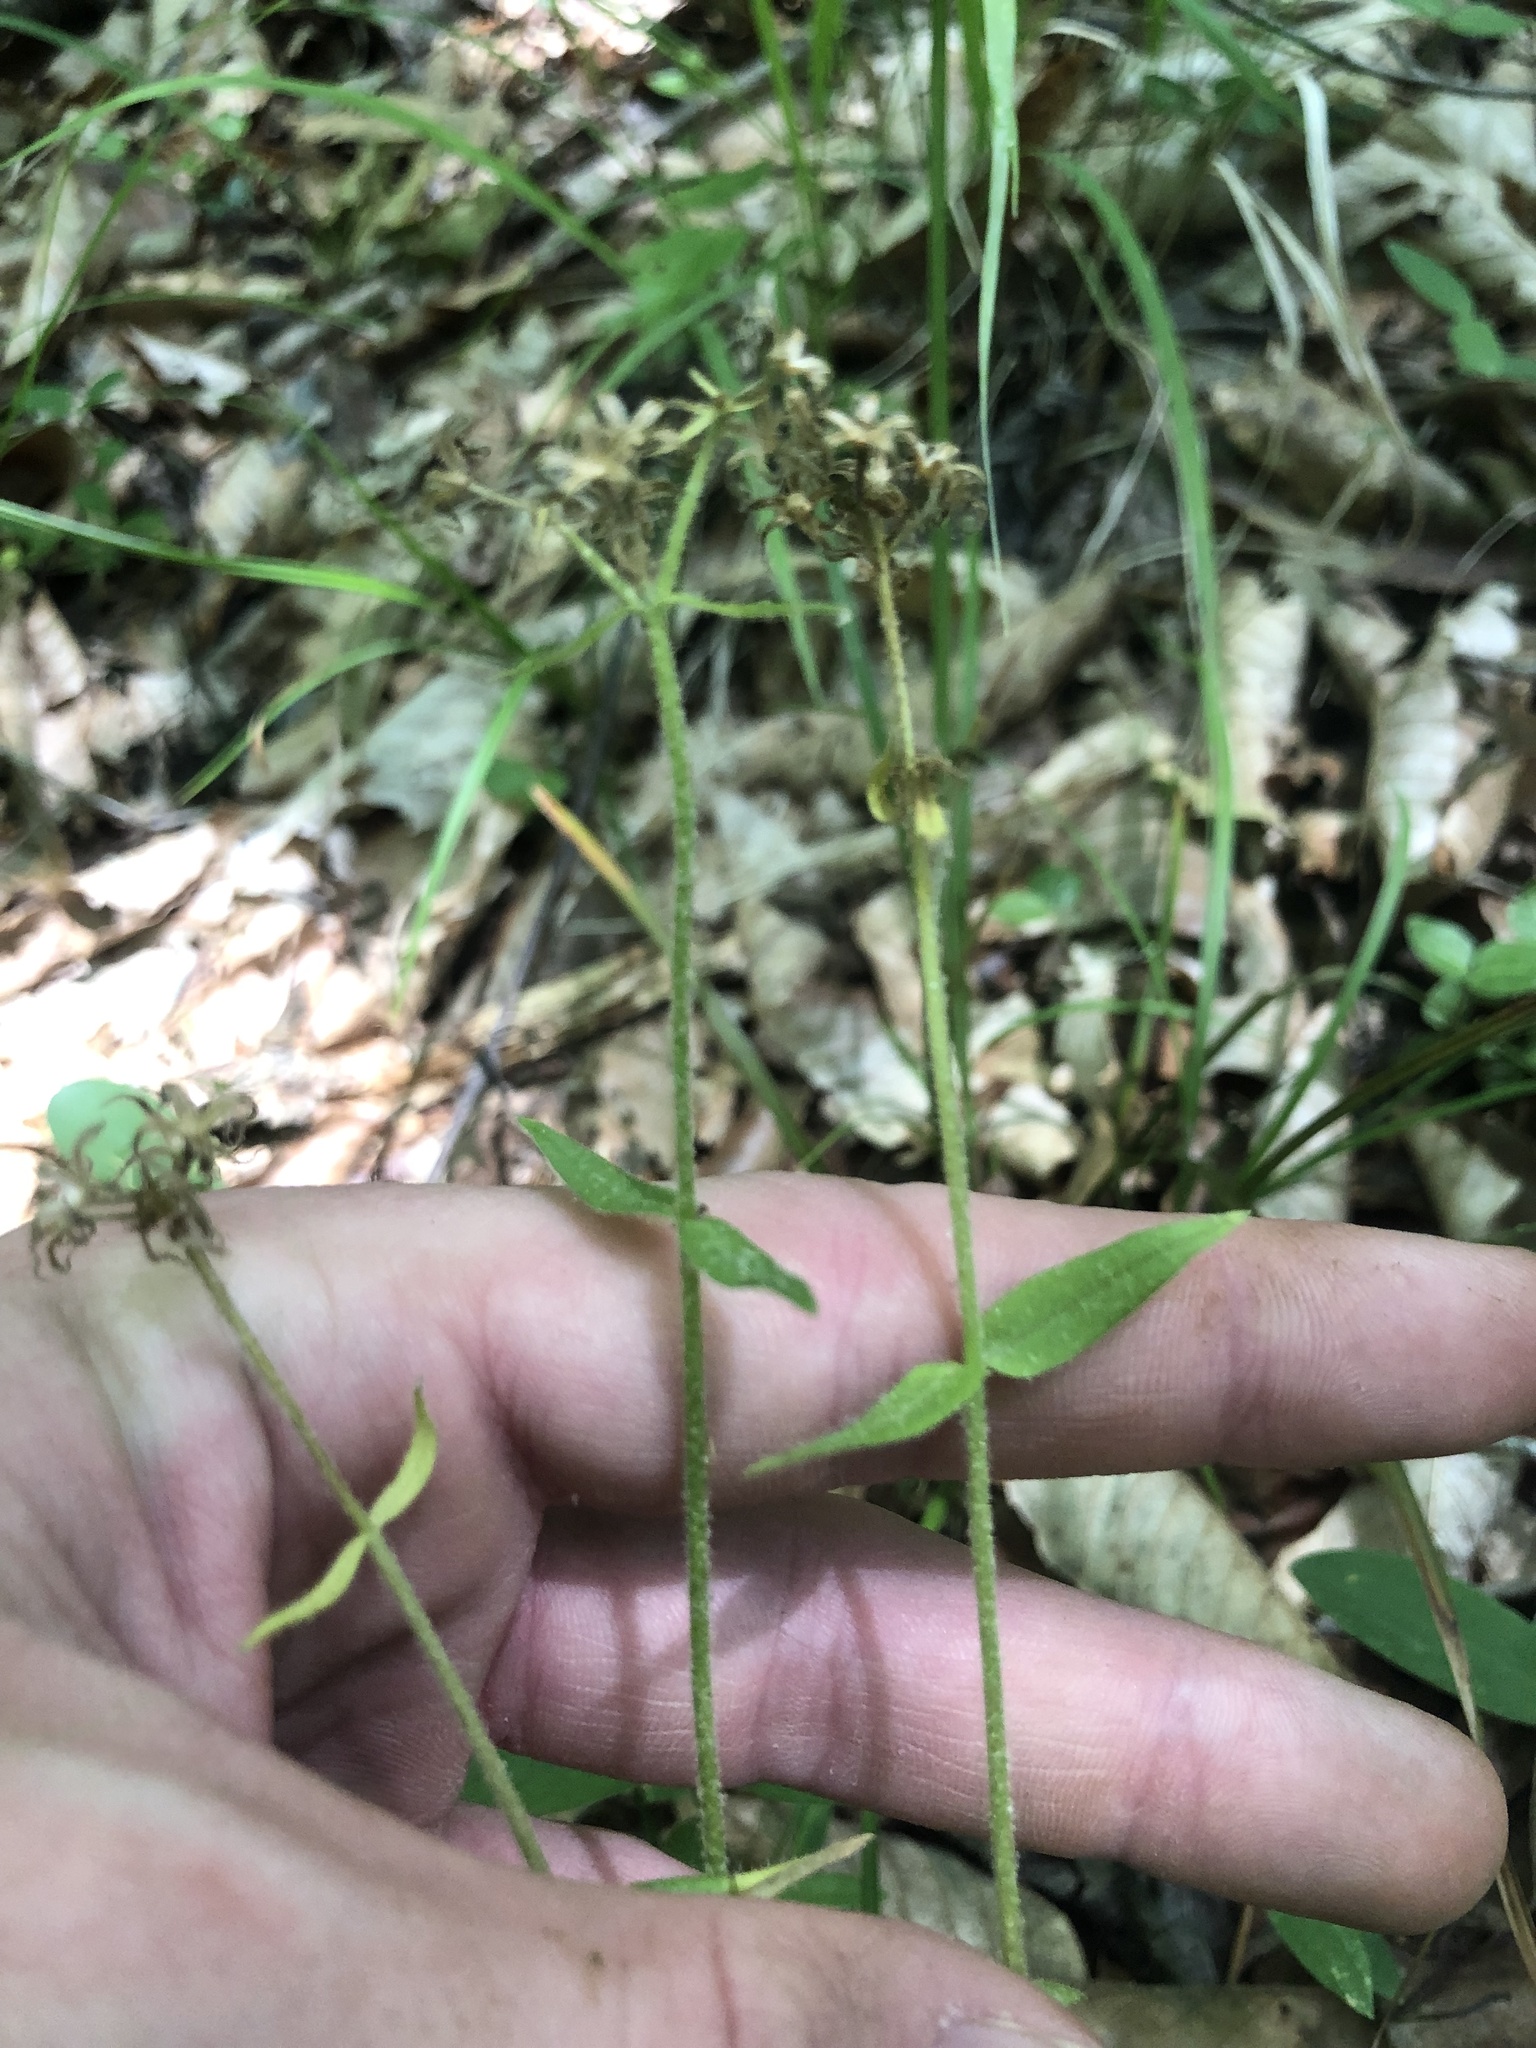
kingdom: Plantae
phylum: Tracheophyta
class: Magnoliopsida
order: Ericales
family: Polemoniaceae
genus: Phlox
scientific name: Phlox divaricata
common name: Blue phlox
